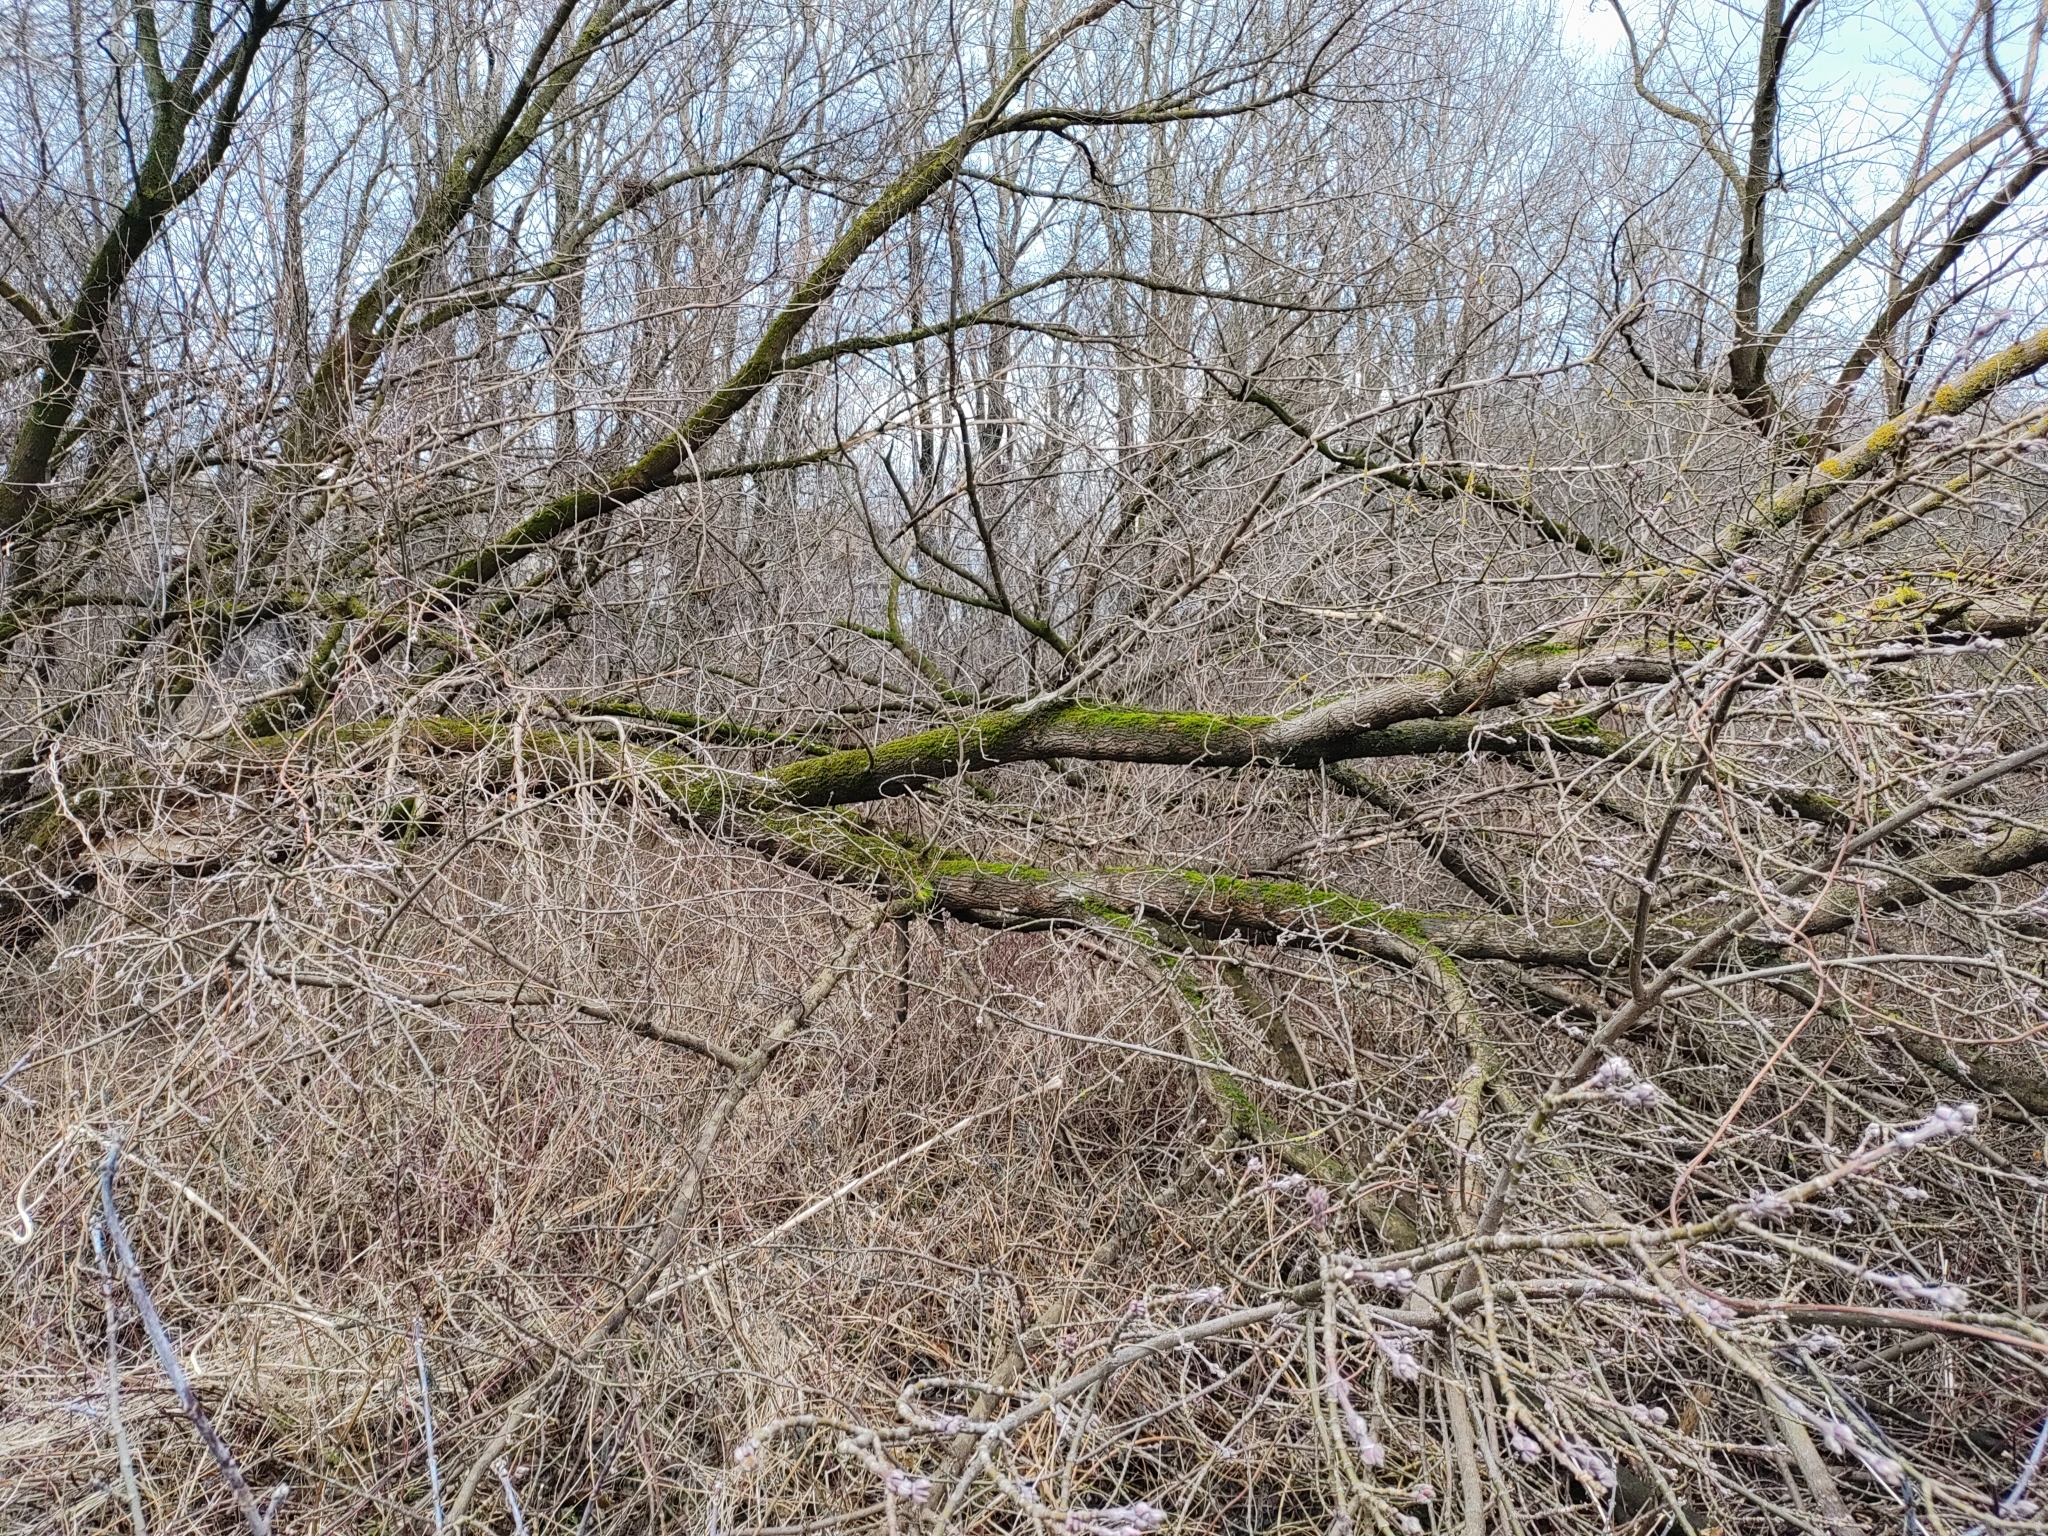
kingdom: Plantae
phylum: Tracheophyta
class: Magnoliopsida
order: Sapindales
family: Sapindaceae
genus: Acer
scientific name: Acer negundo
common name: Ashleaf maple
